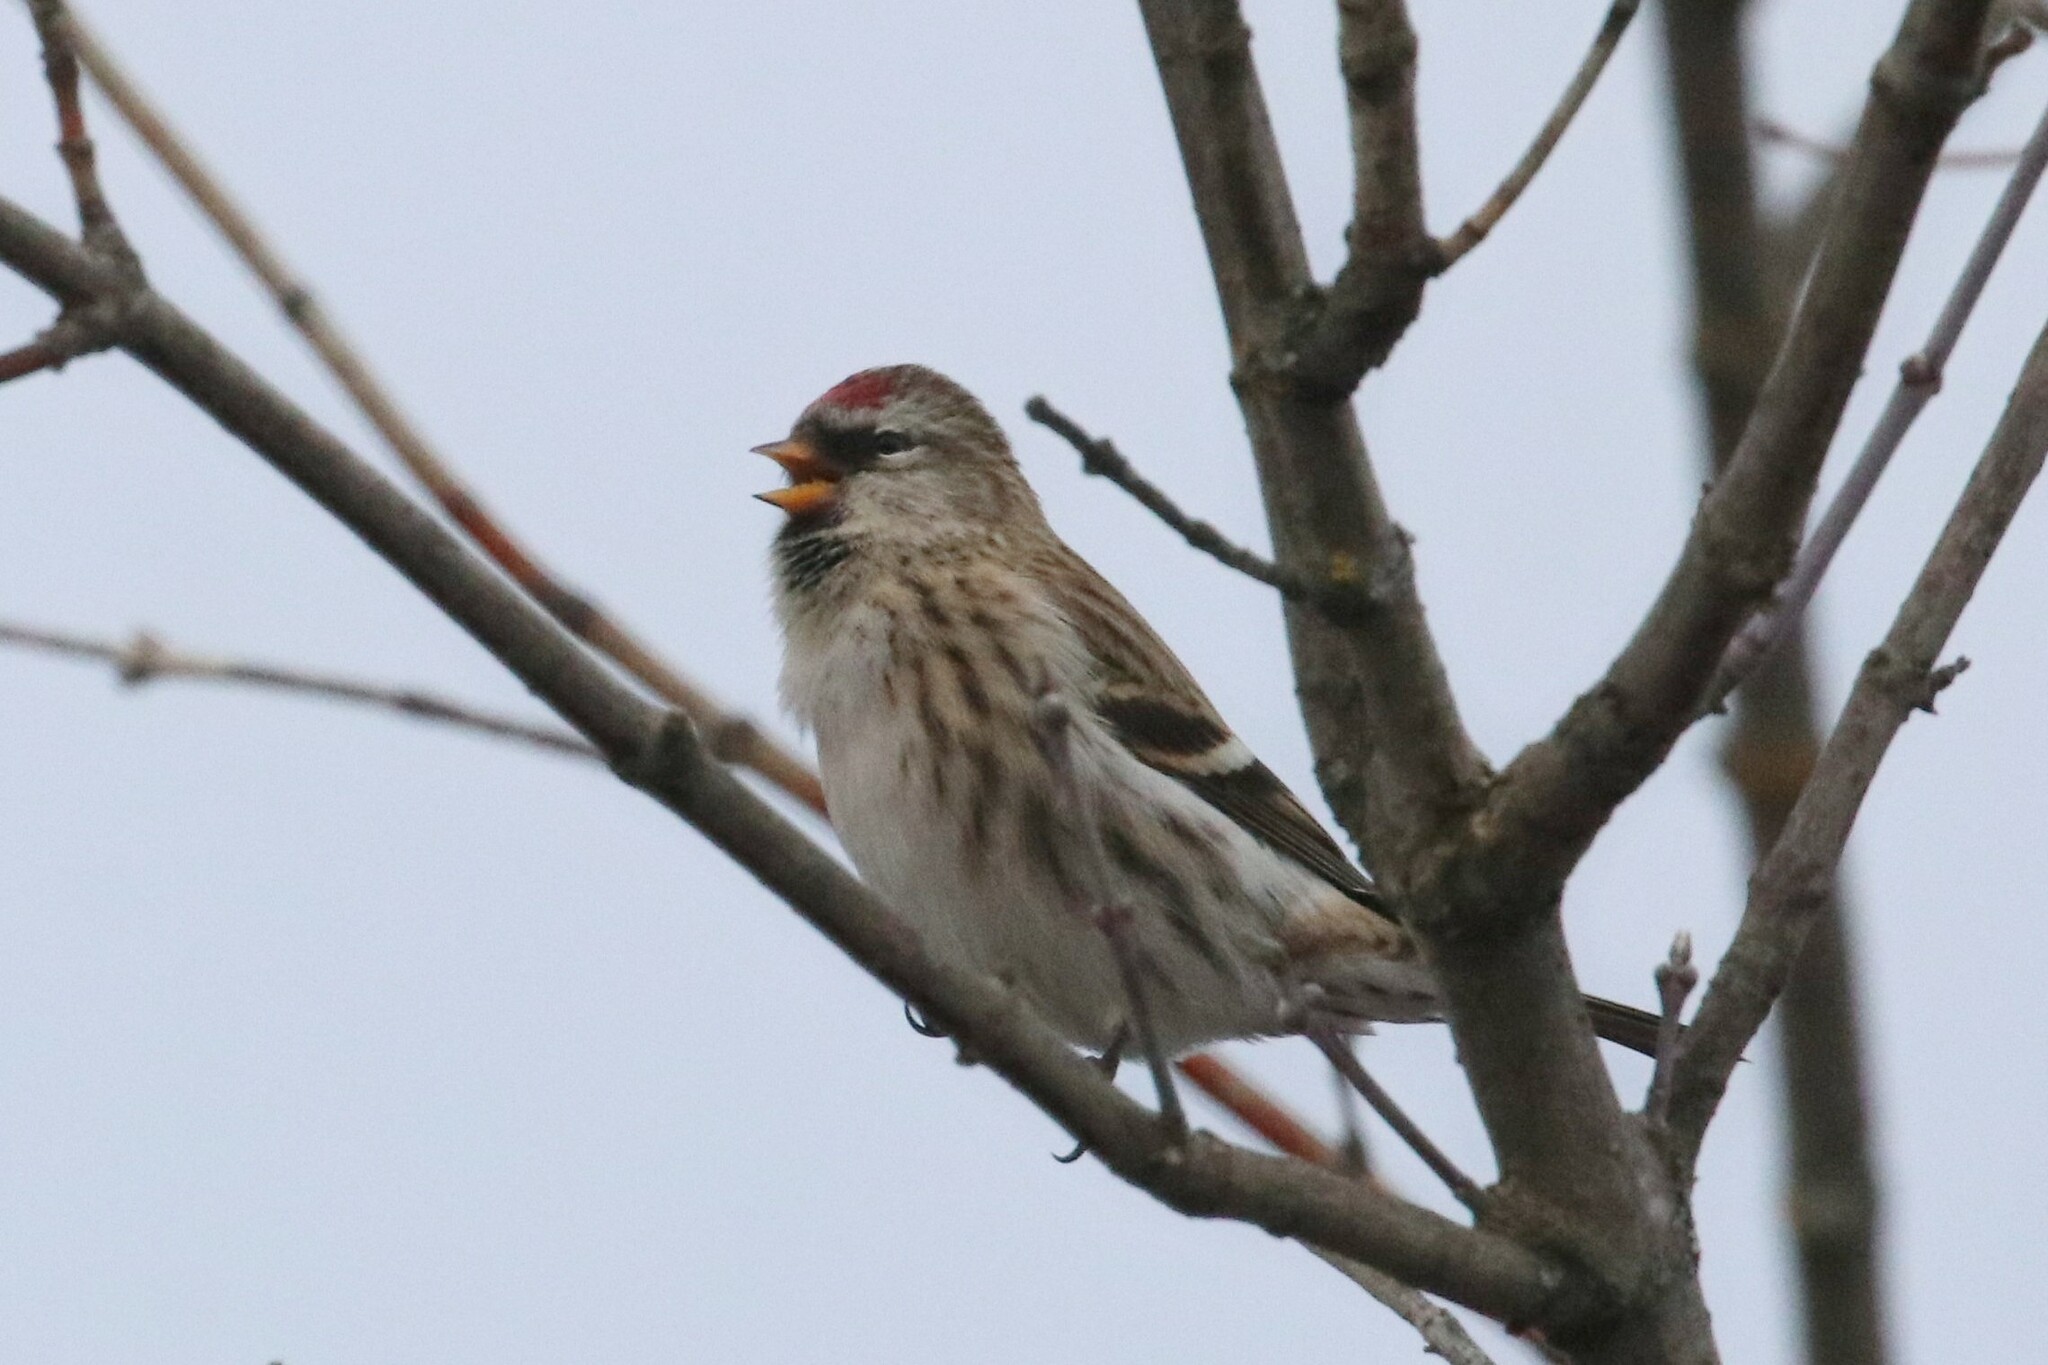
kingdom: Animalia
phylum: Chordata
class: Aves
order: Passeriformes
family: Fringillidae
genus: Acanthis
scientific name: Acanthis flammea
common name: Common redpoll
